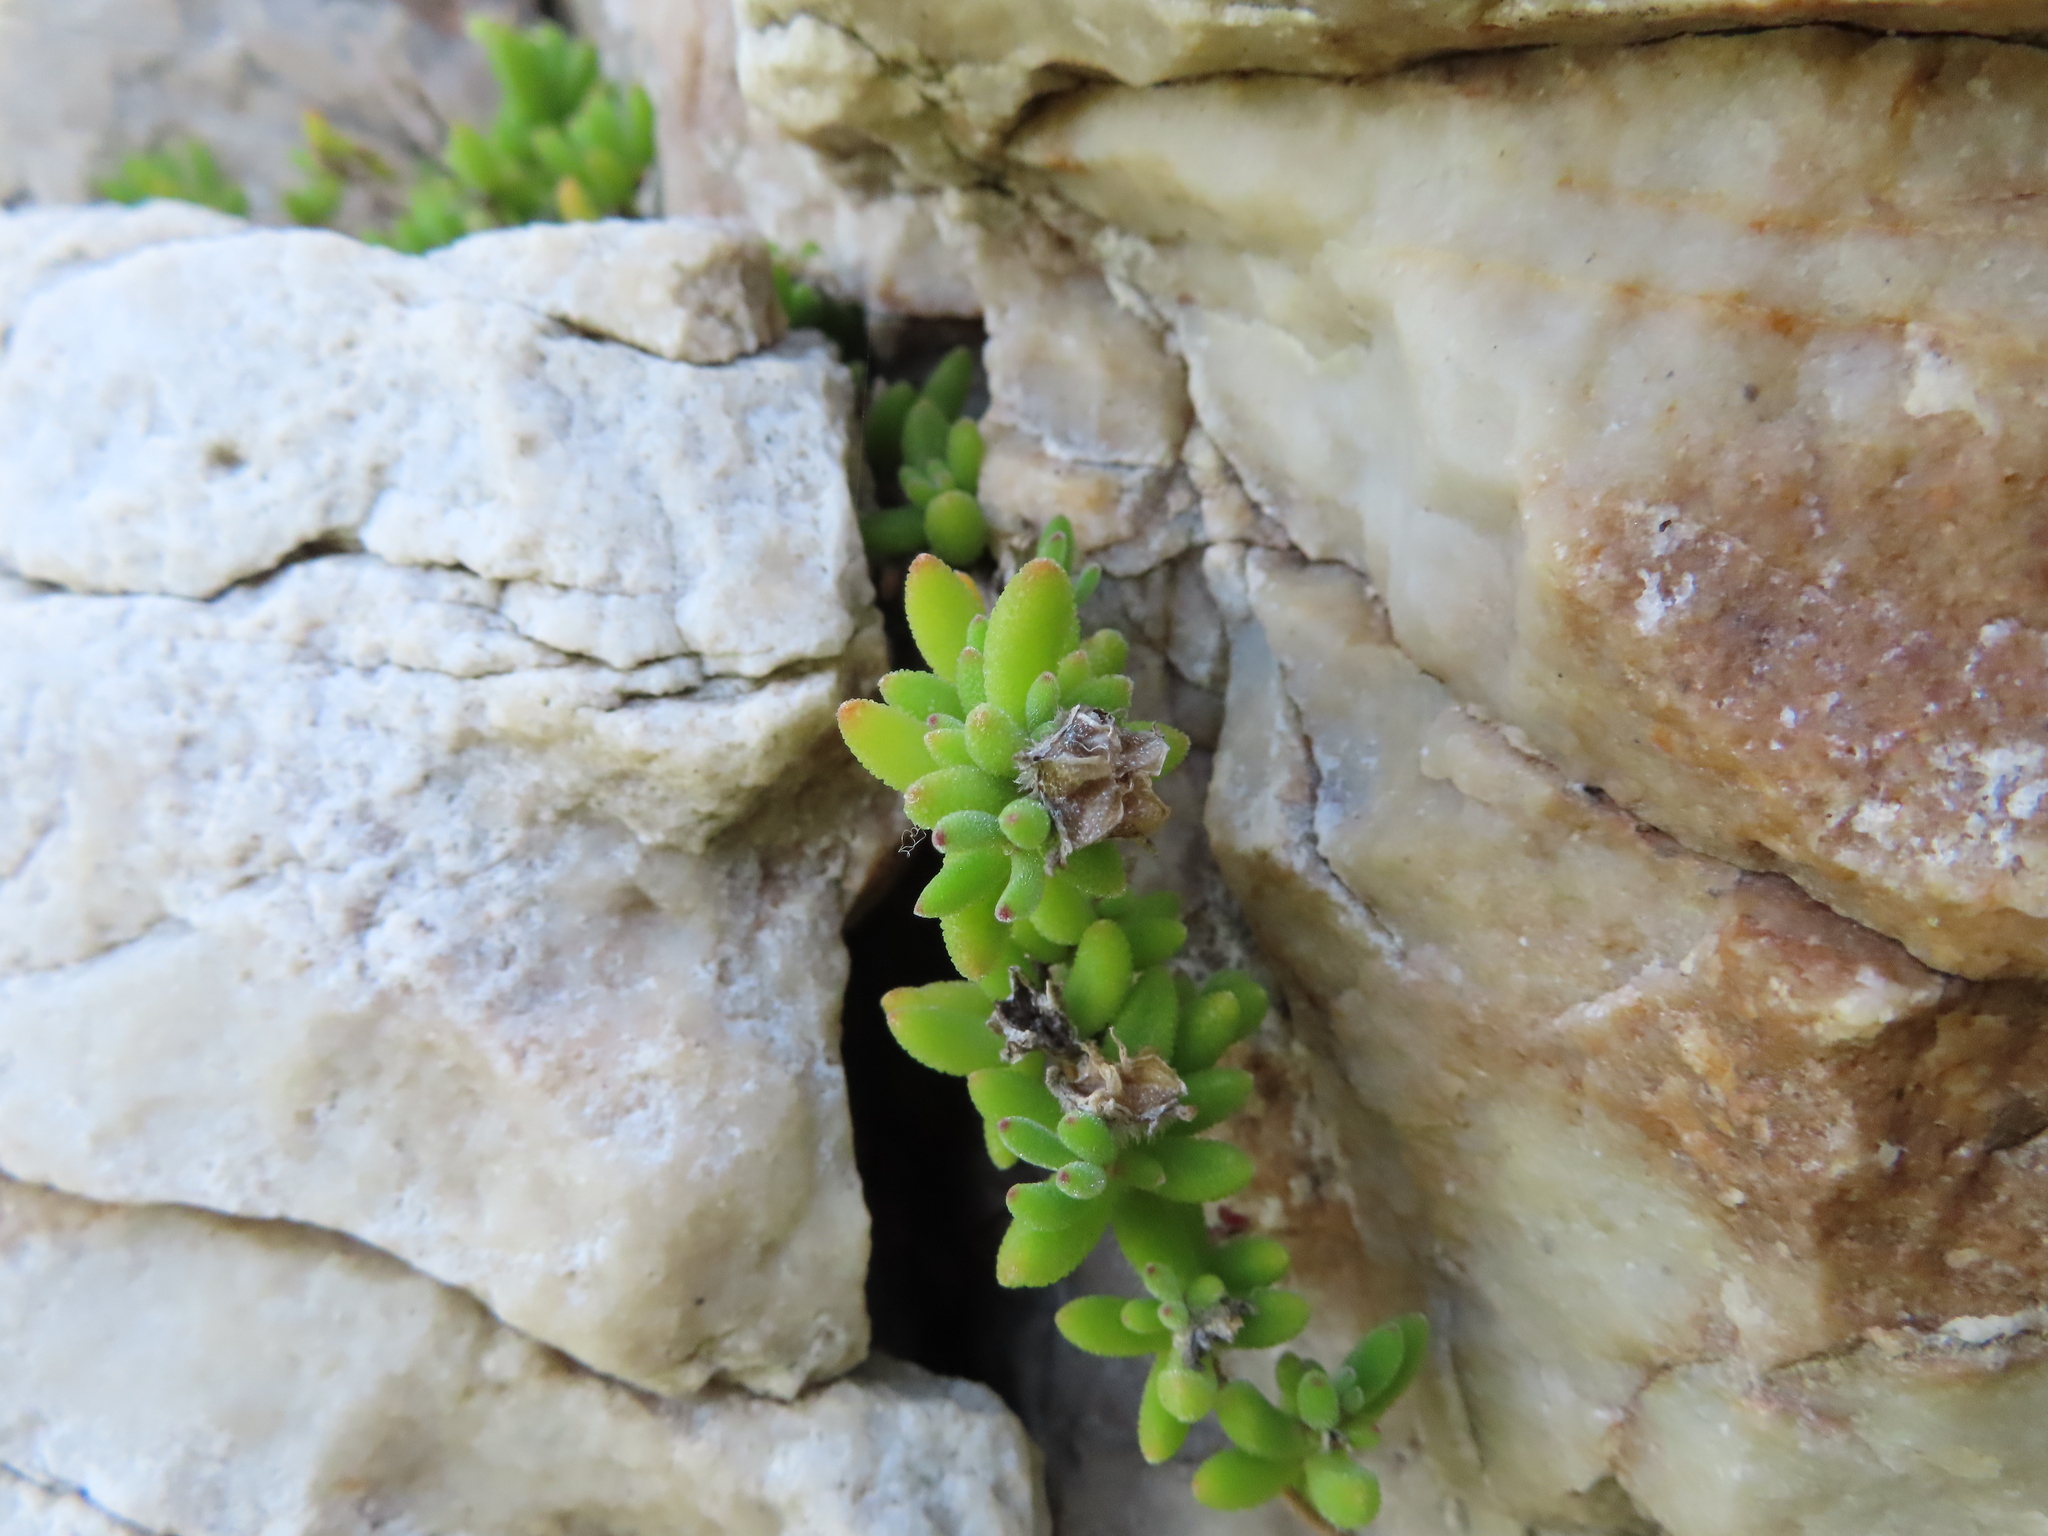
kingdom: Plantae
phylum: Tracheophyta
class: Magnoliopsida
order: Caryophyllales
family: Aizoaceae
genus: Drosanthemum
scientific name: Drosanthemum stokoei
